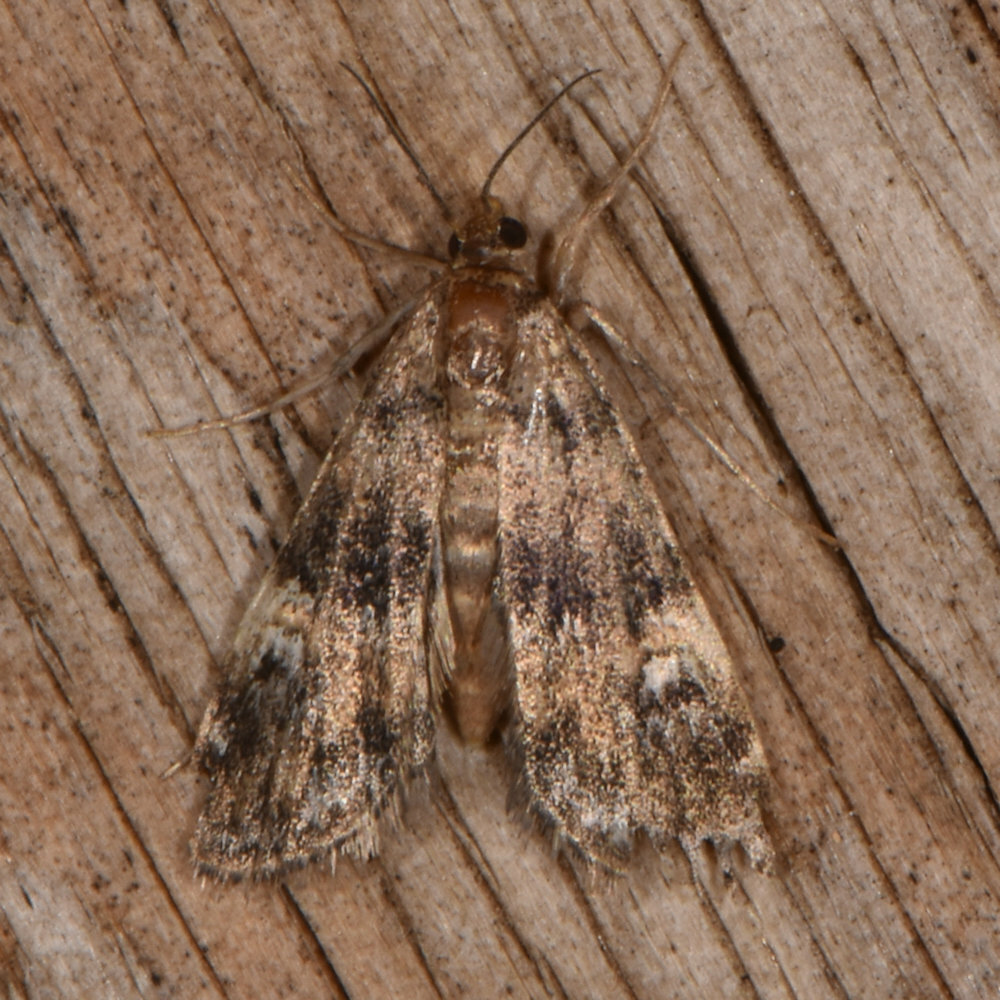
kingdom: Animalia
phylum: Arthropoda
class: Insecta
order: Lepidoptera
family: Crambidae
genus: Elophila
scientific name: Elophila obliteralis
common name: Waterlily leafcutter moth
